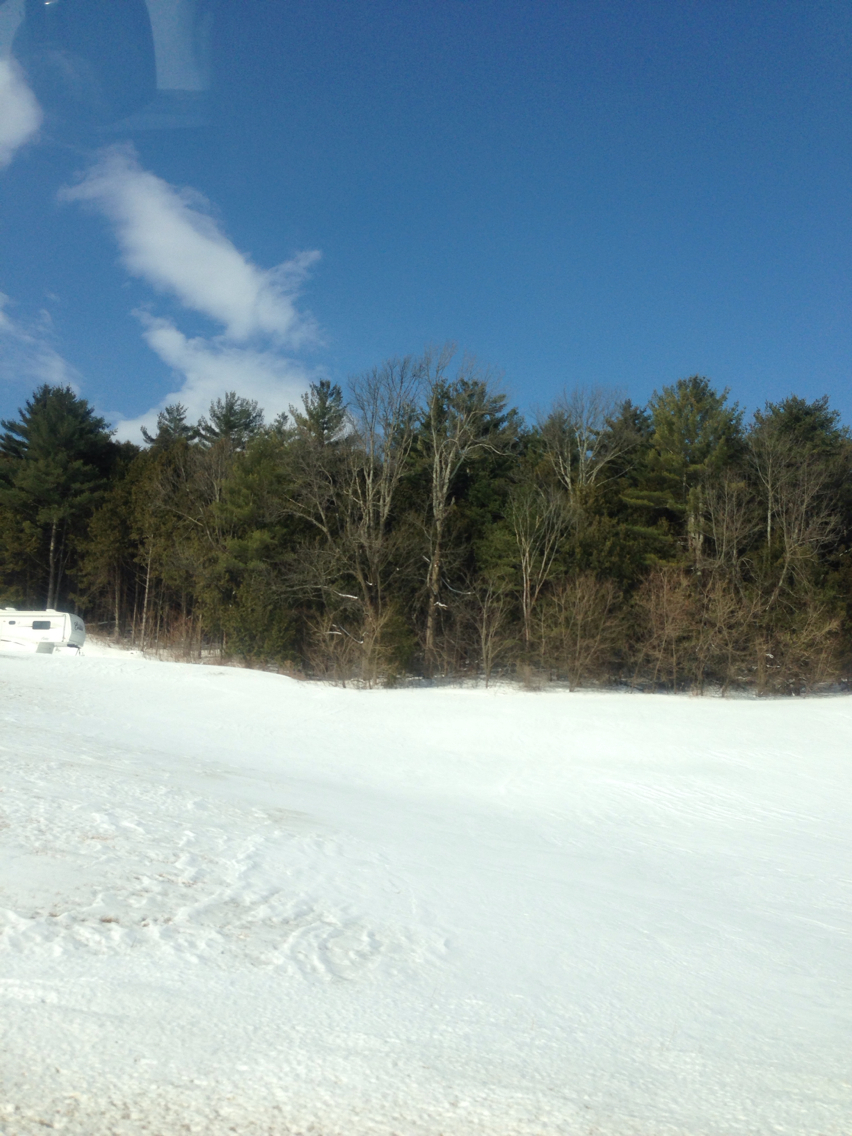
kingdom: Plantae
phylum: Tracheophyta
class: Pinopsida
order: Pinales
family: Pinaceae
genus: Pinus
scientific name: Pinus strobus
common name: Weymouth pine
